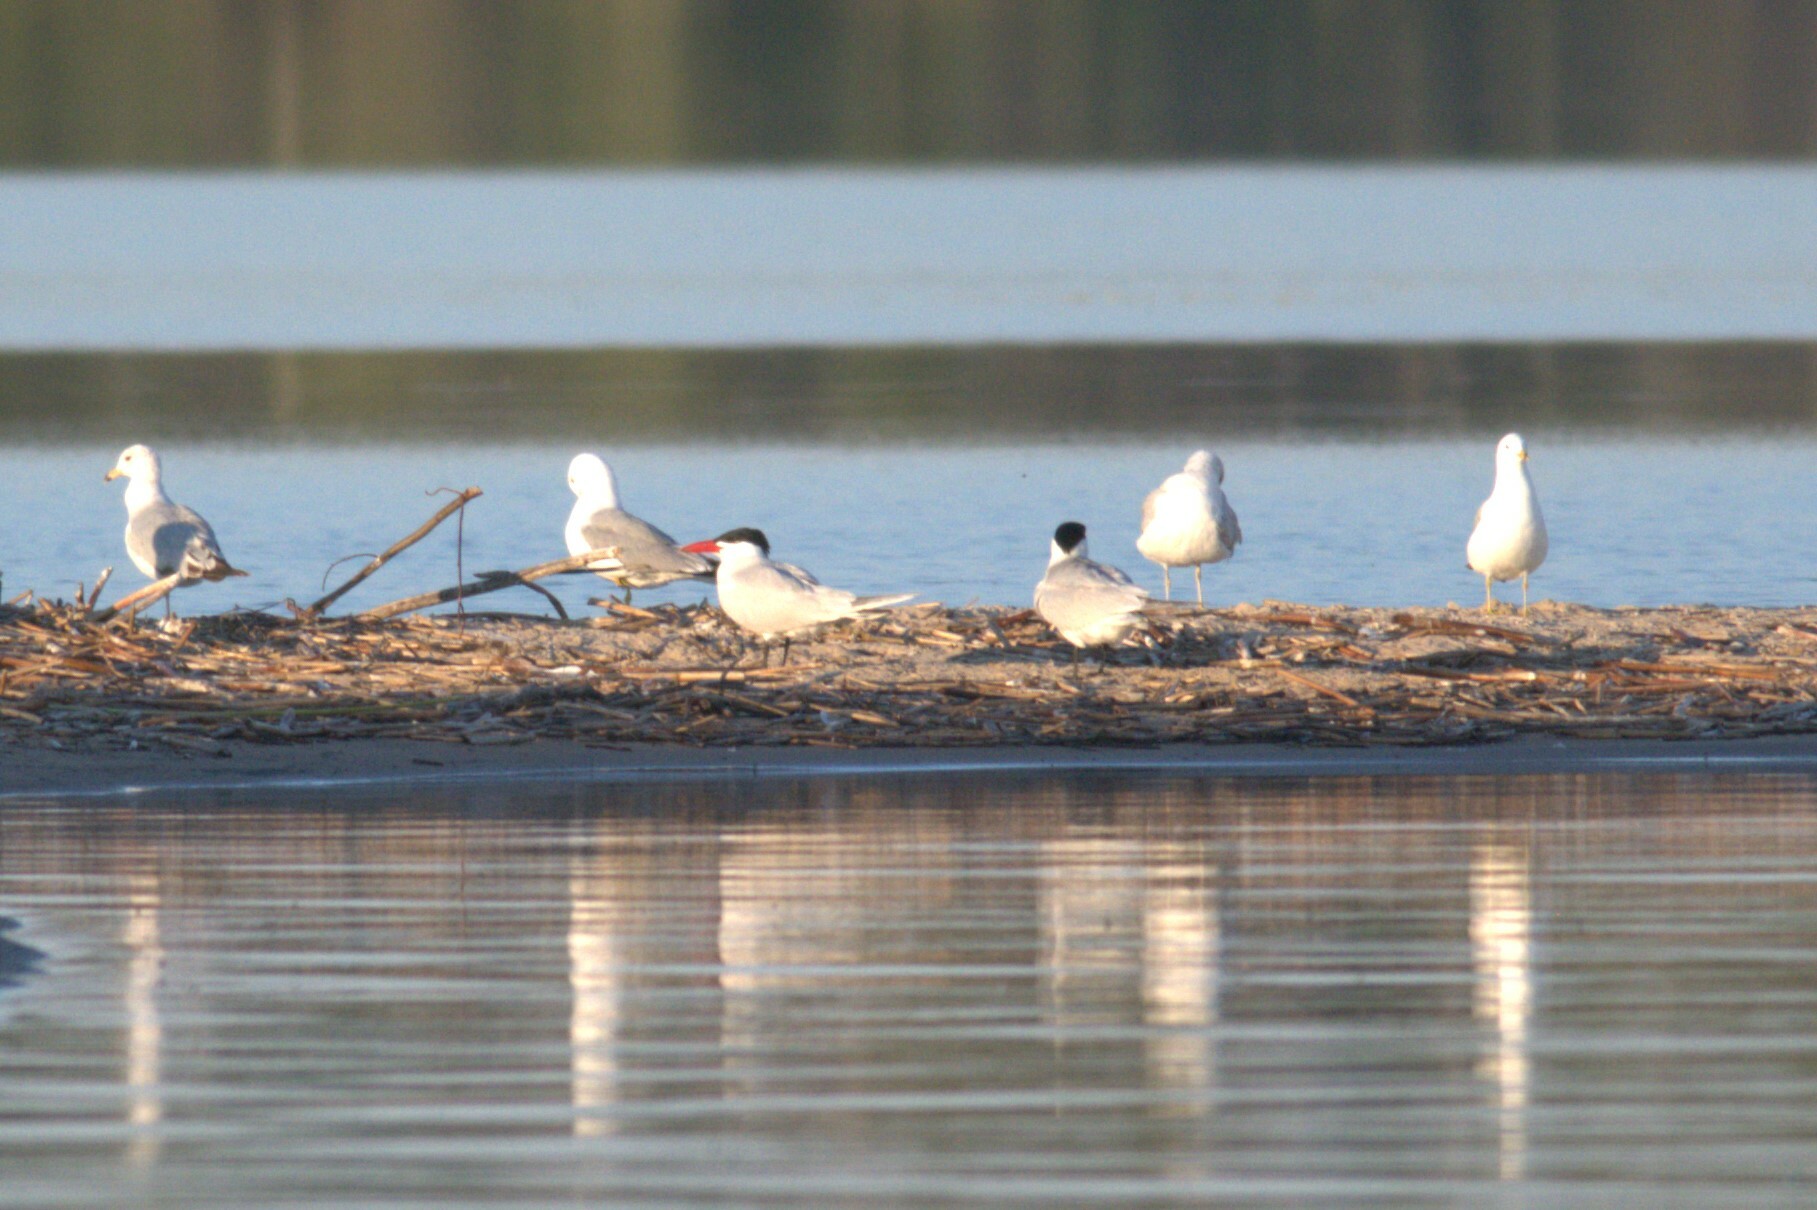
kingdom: Animalia
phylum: Chordata
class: Aves
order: Charadriiformes
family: Laridae
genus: Hydroprogne
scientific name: Hydroprogne caspia
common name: Caspian tern
